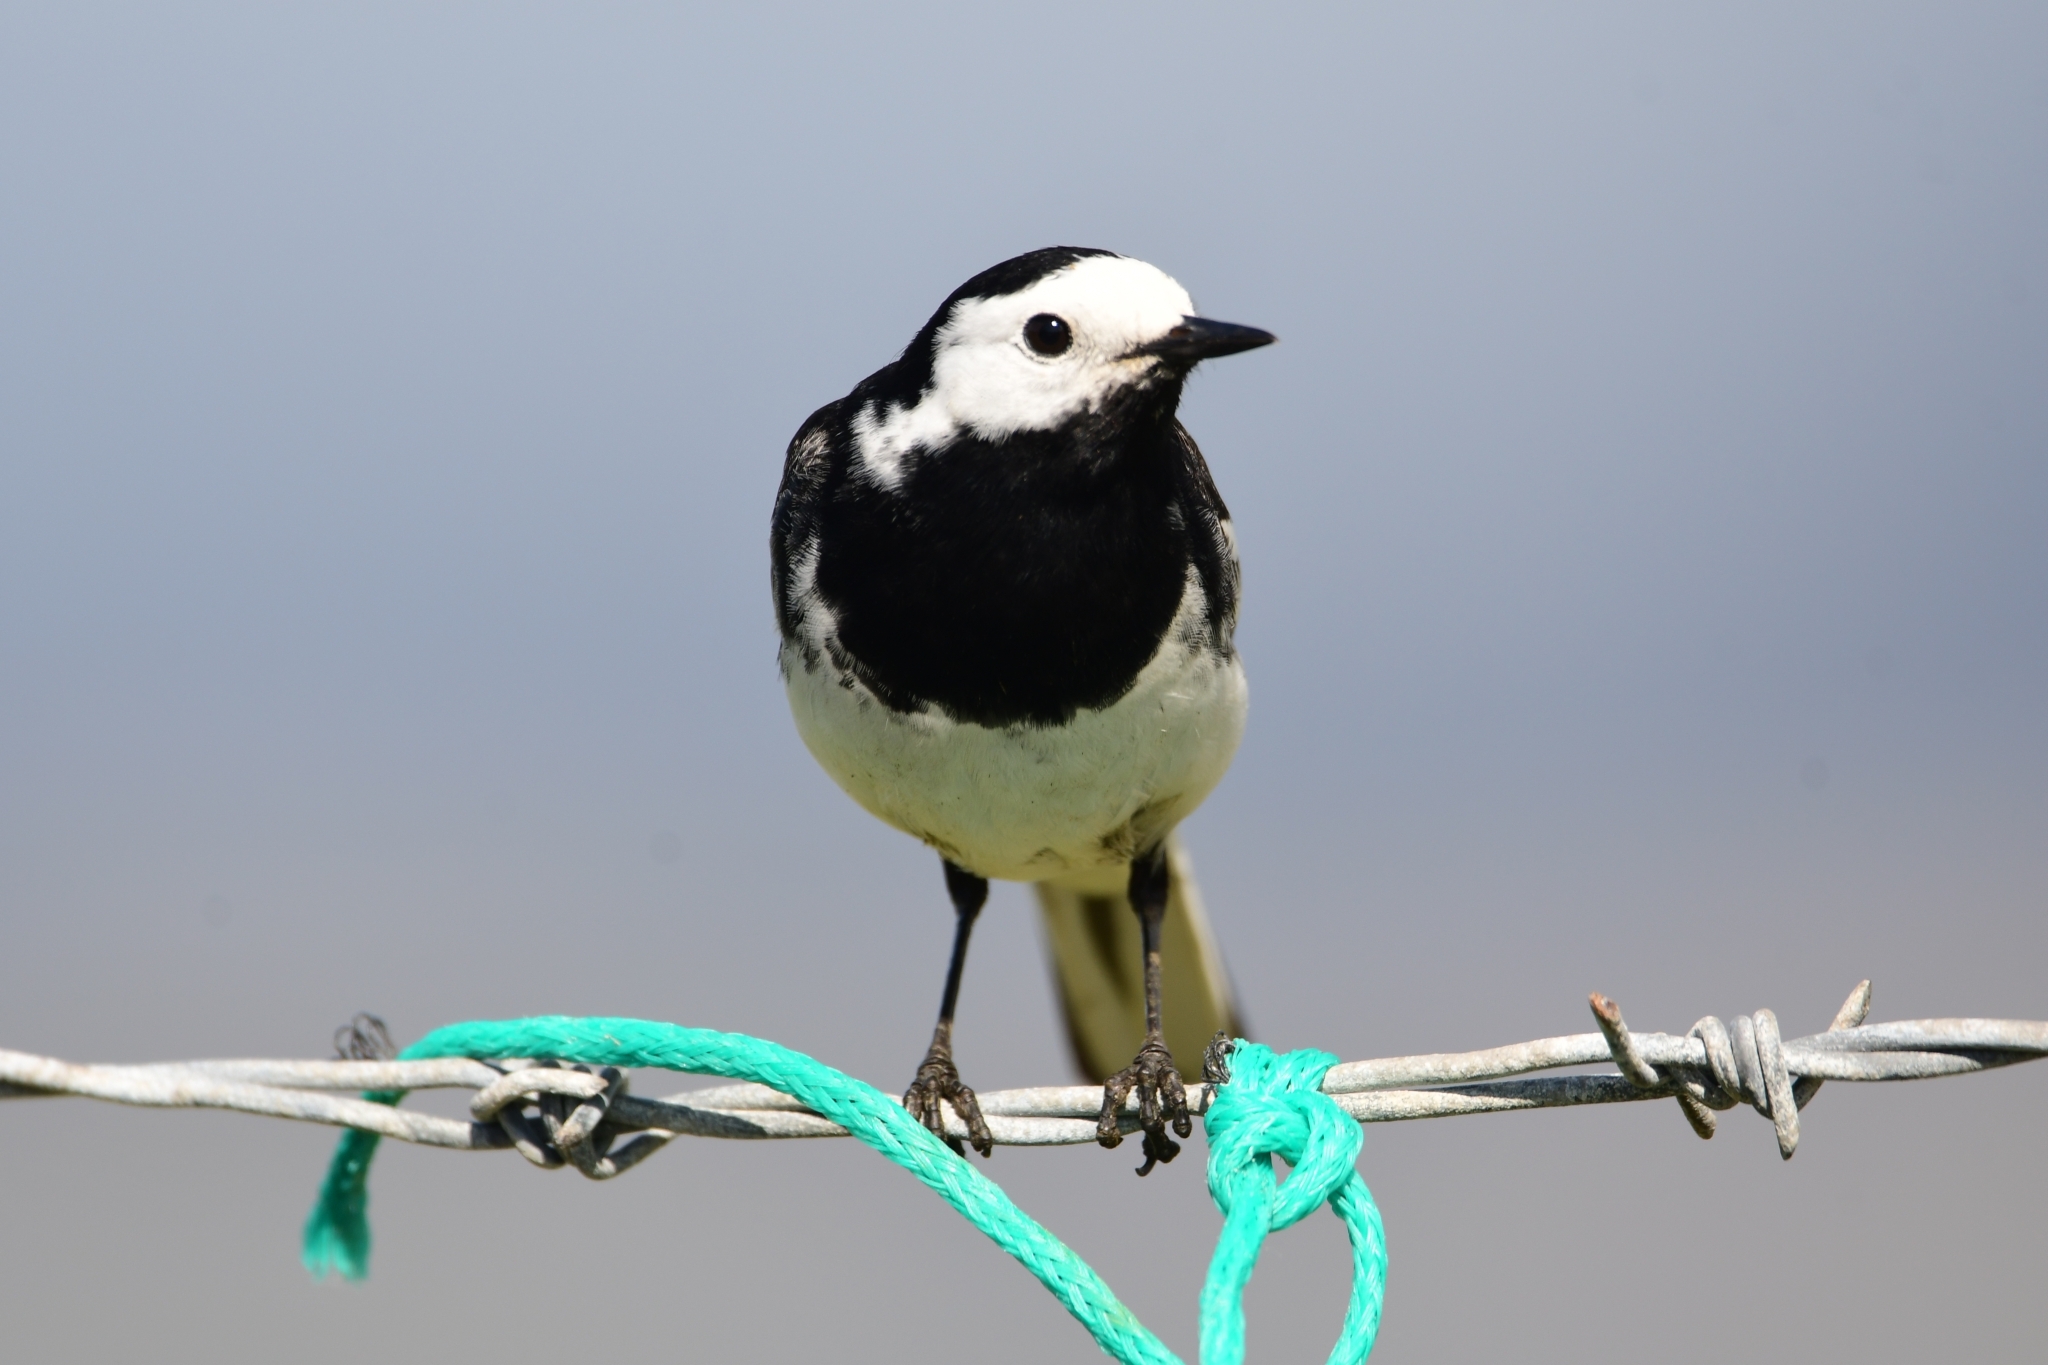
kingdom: Animalia
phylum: Chordata
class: Aves
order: Passeriformes
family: Motacillidae
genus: Motacilla
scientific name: Motacilla alba
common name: White wagtail
